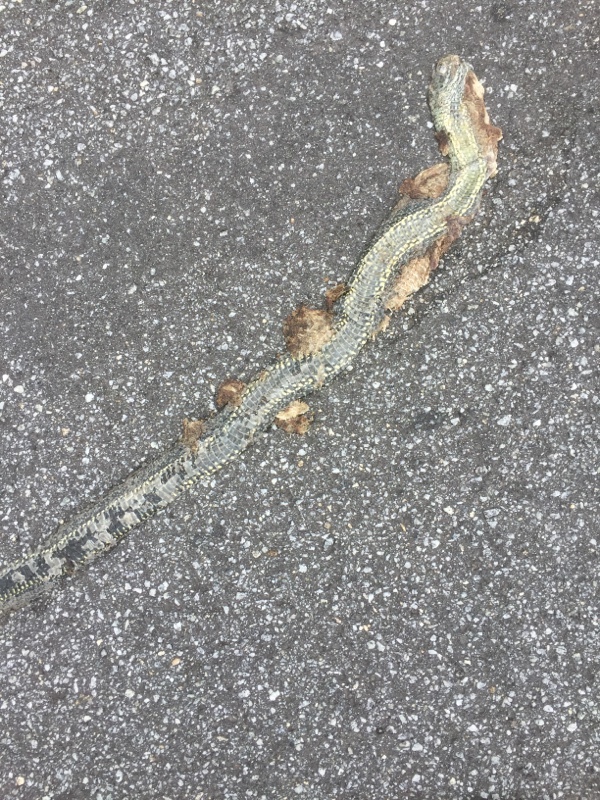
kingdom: Animalia
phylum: Chordata
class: Squamata
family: Psammophiidae
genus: Malpolon
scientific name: Malpolon monspessulanus
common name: Montpellier snake
